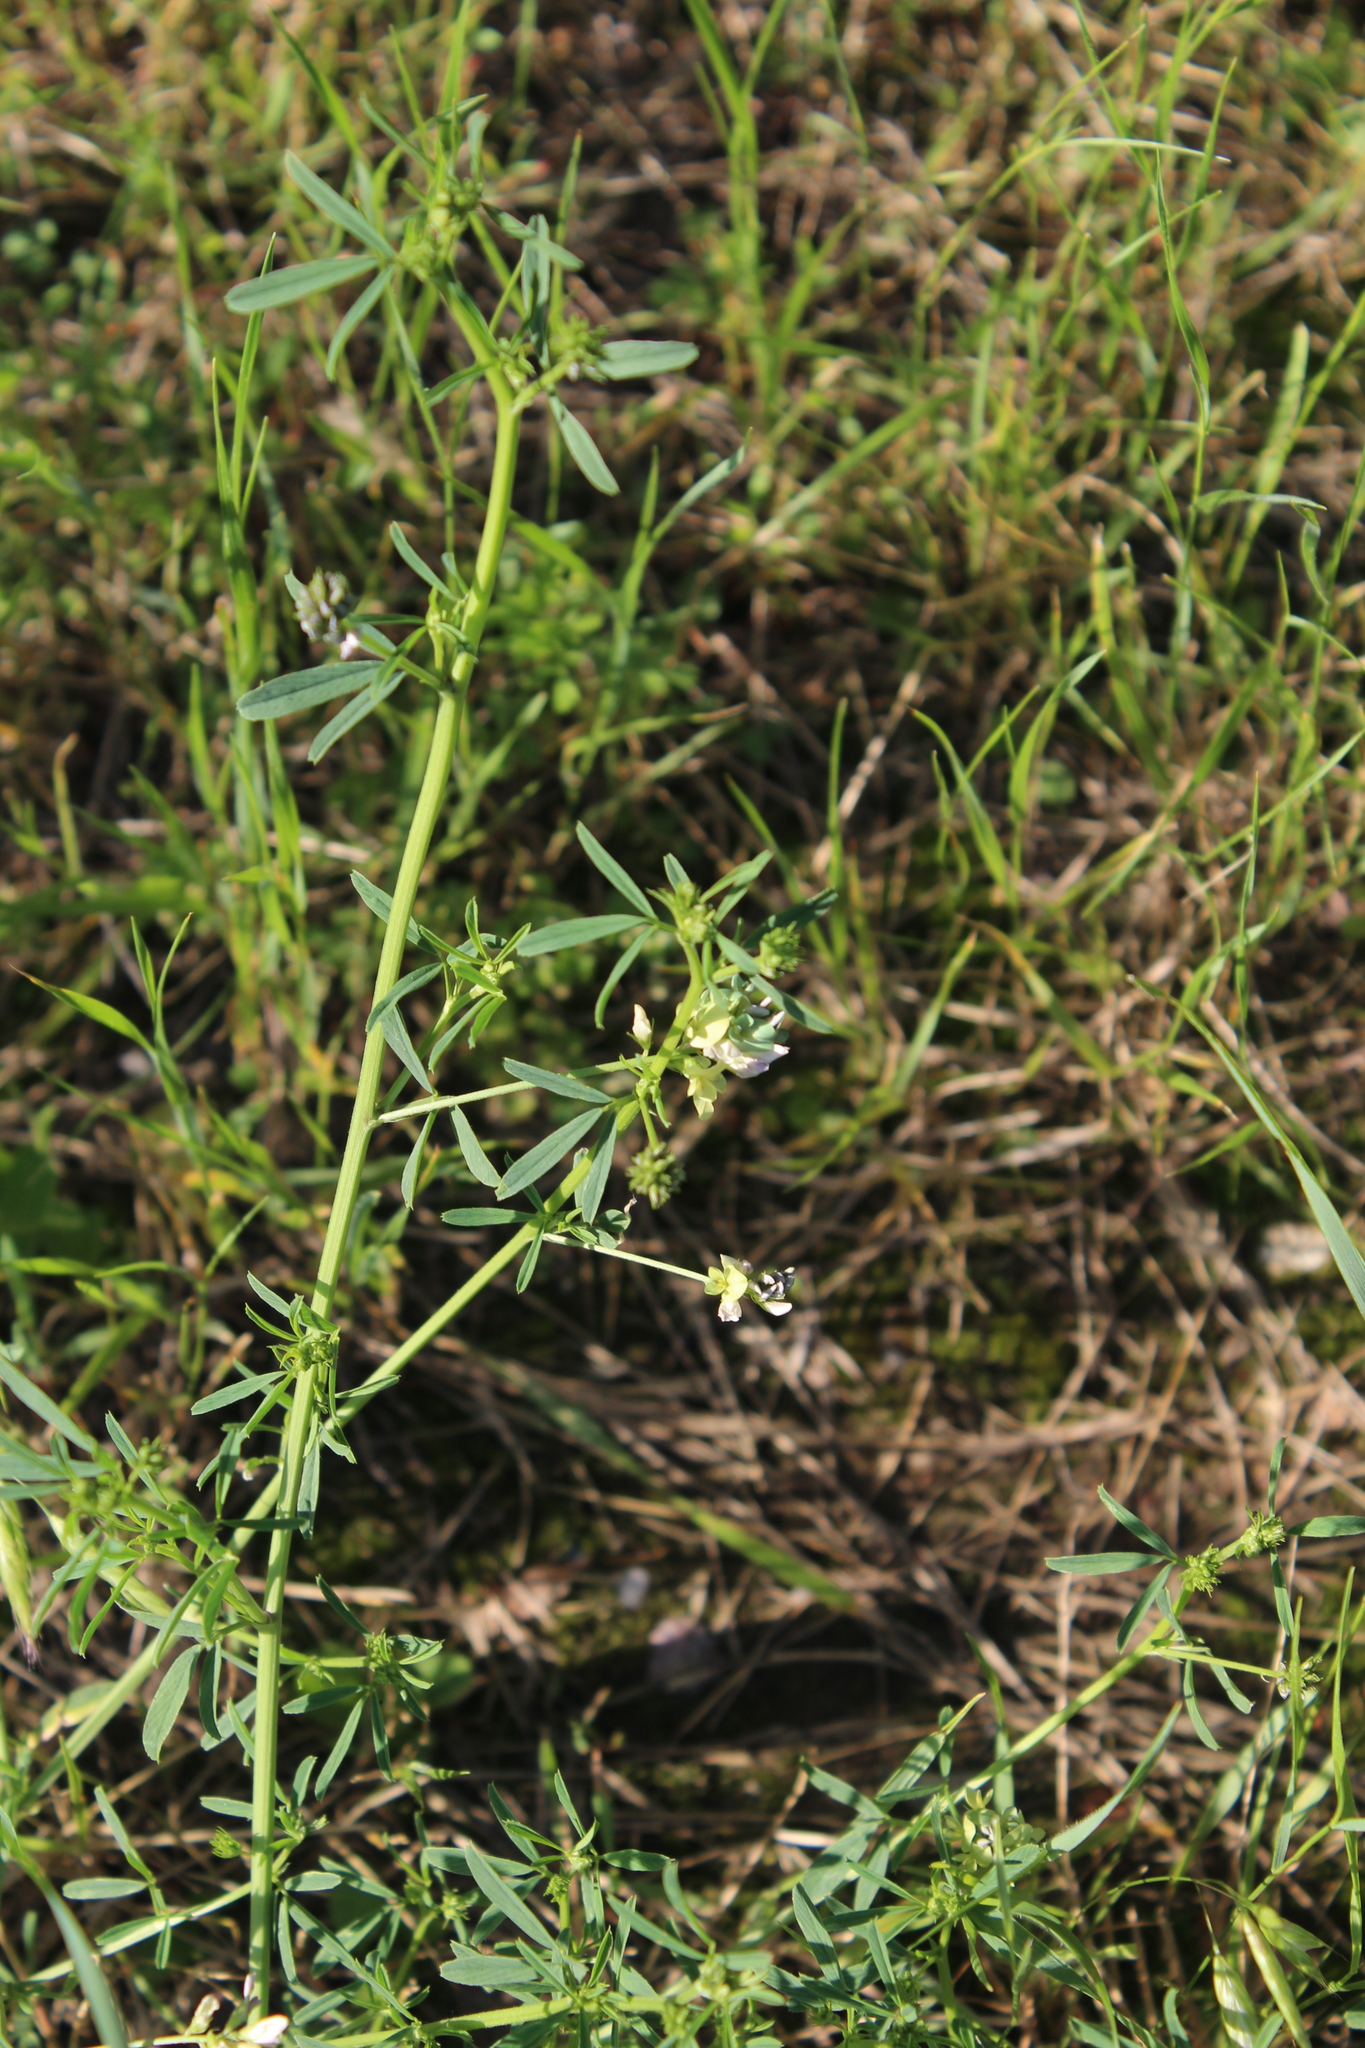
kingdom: Plantae
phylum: Tracheophyta
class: Magnoliopsida
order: Fabales
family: Fabaceae
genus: Medicago
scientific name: Medicago varia
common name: Sand lucerne
